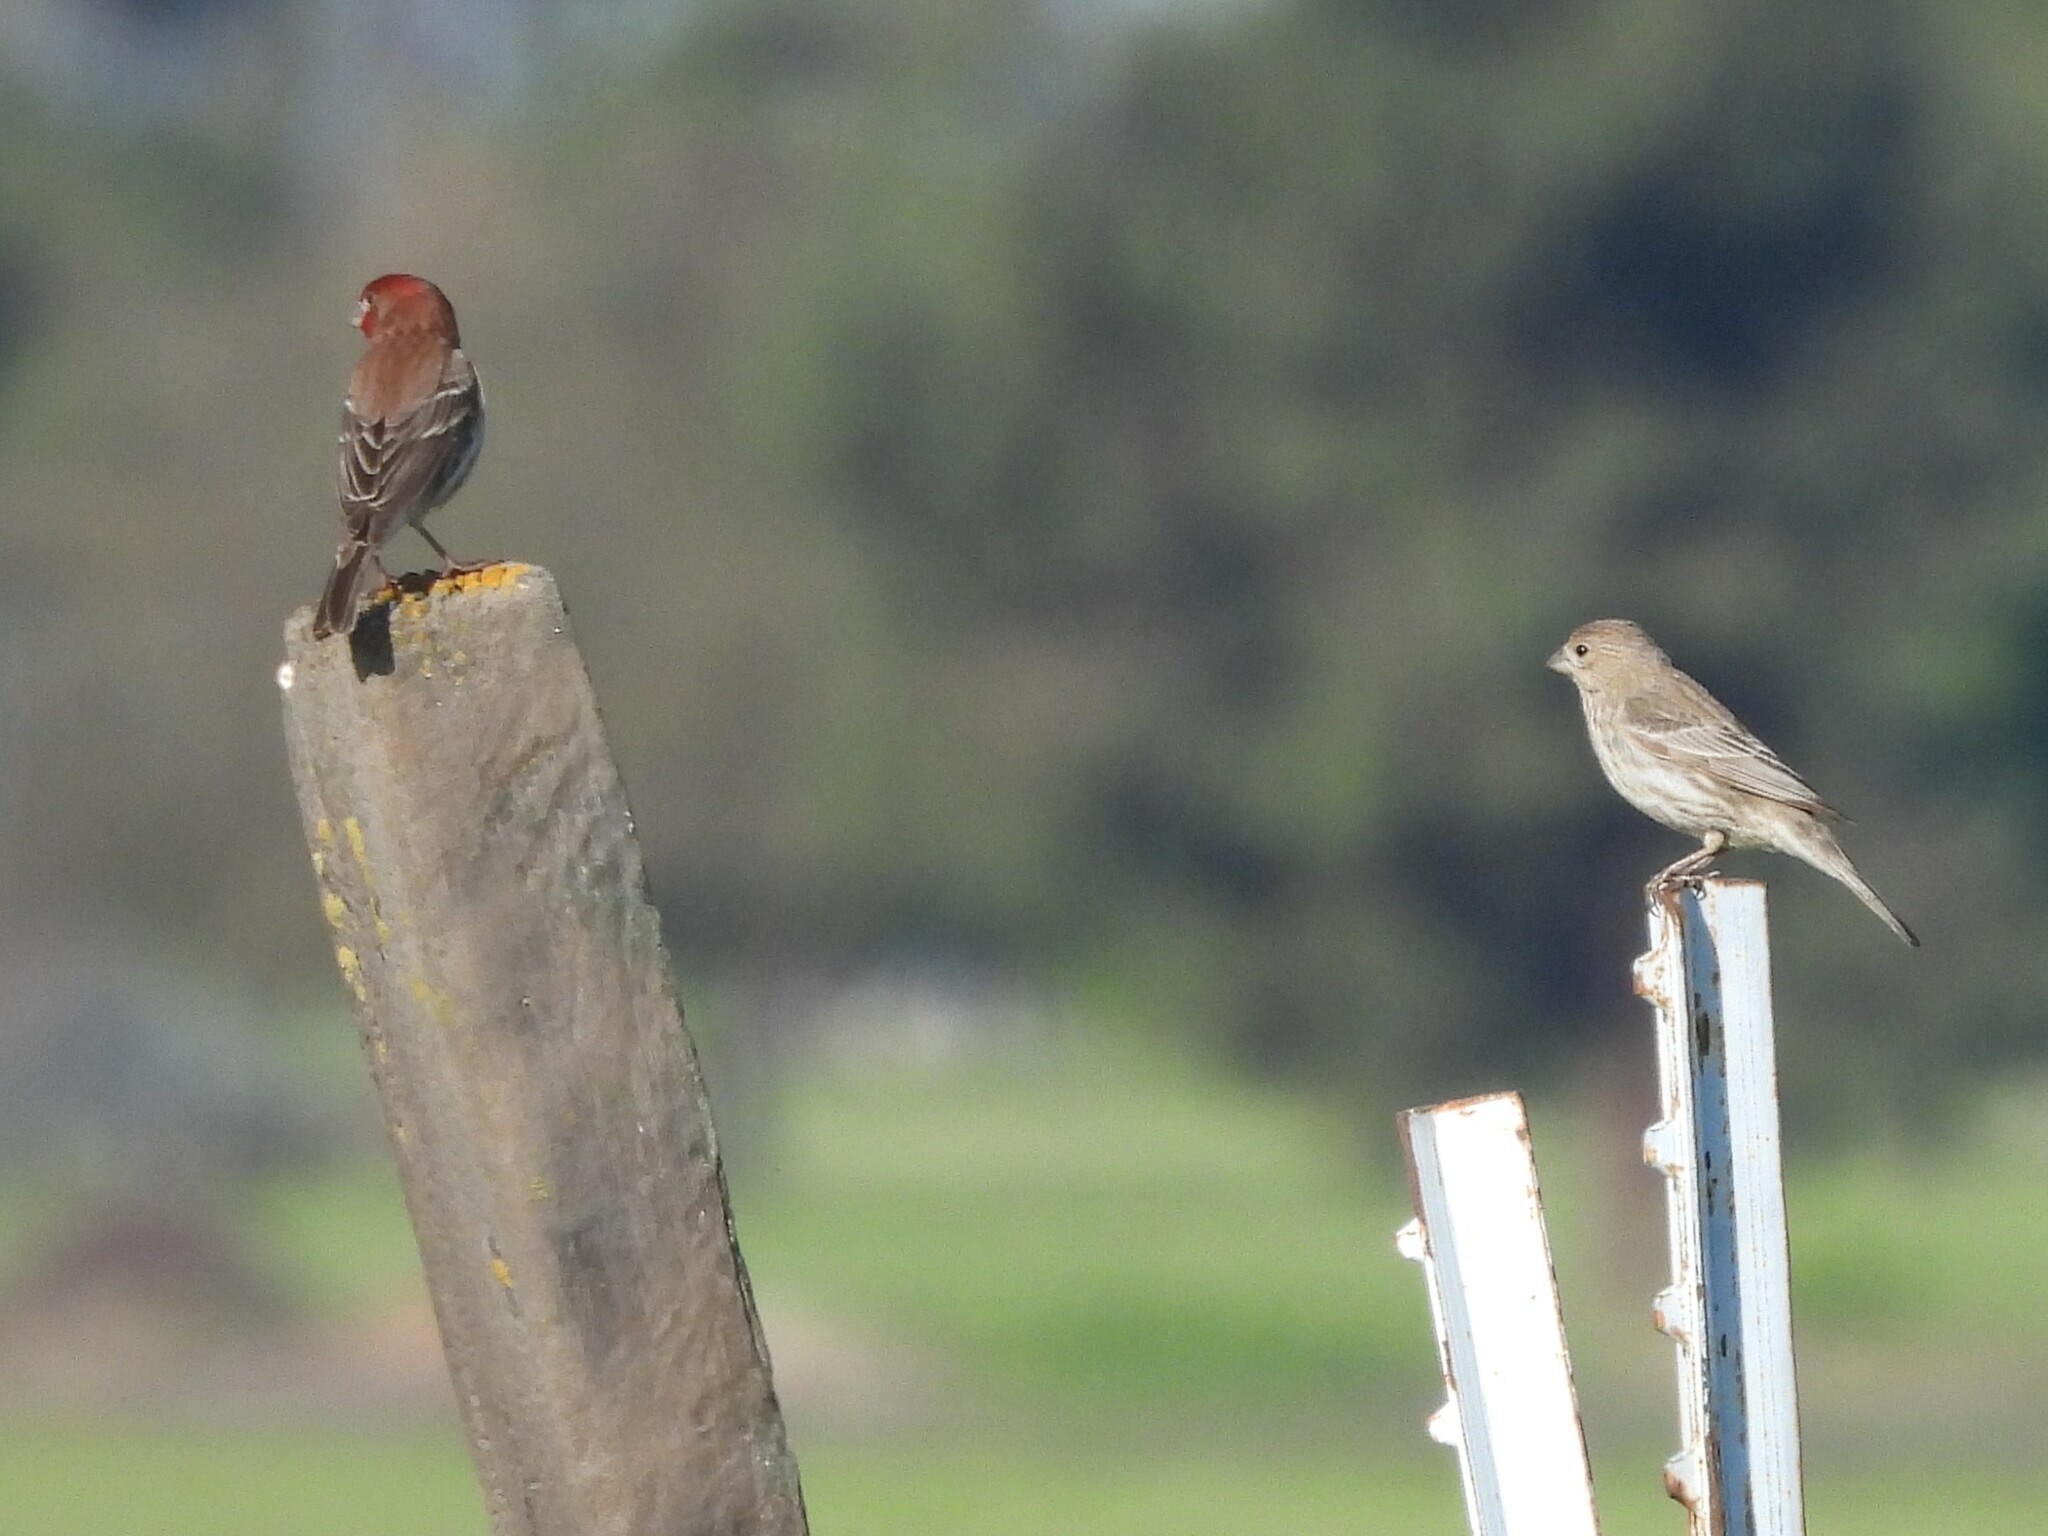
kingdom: Animalia
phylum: Chordata
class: Aves
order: Passeriformes
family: Fringillidae
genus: Haemorhous
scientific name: Haemorhous mexicanus
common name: House finch
